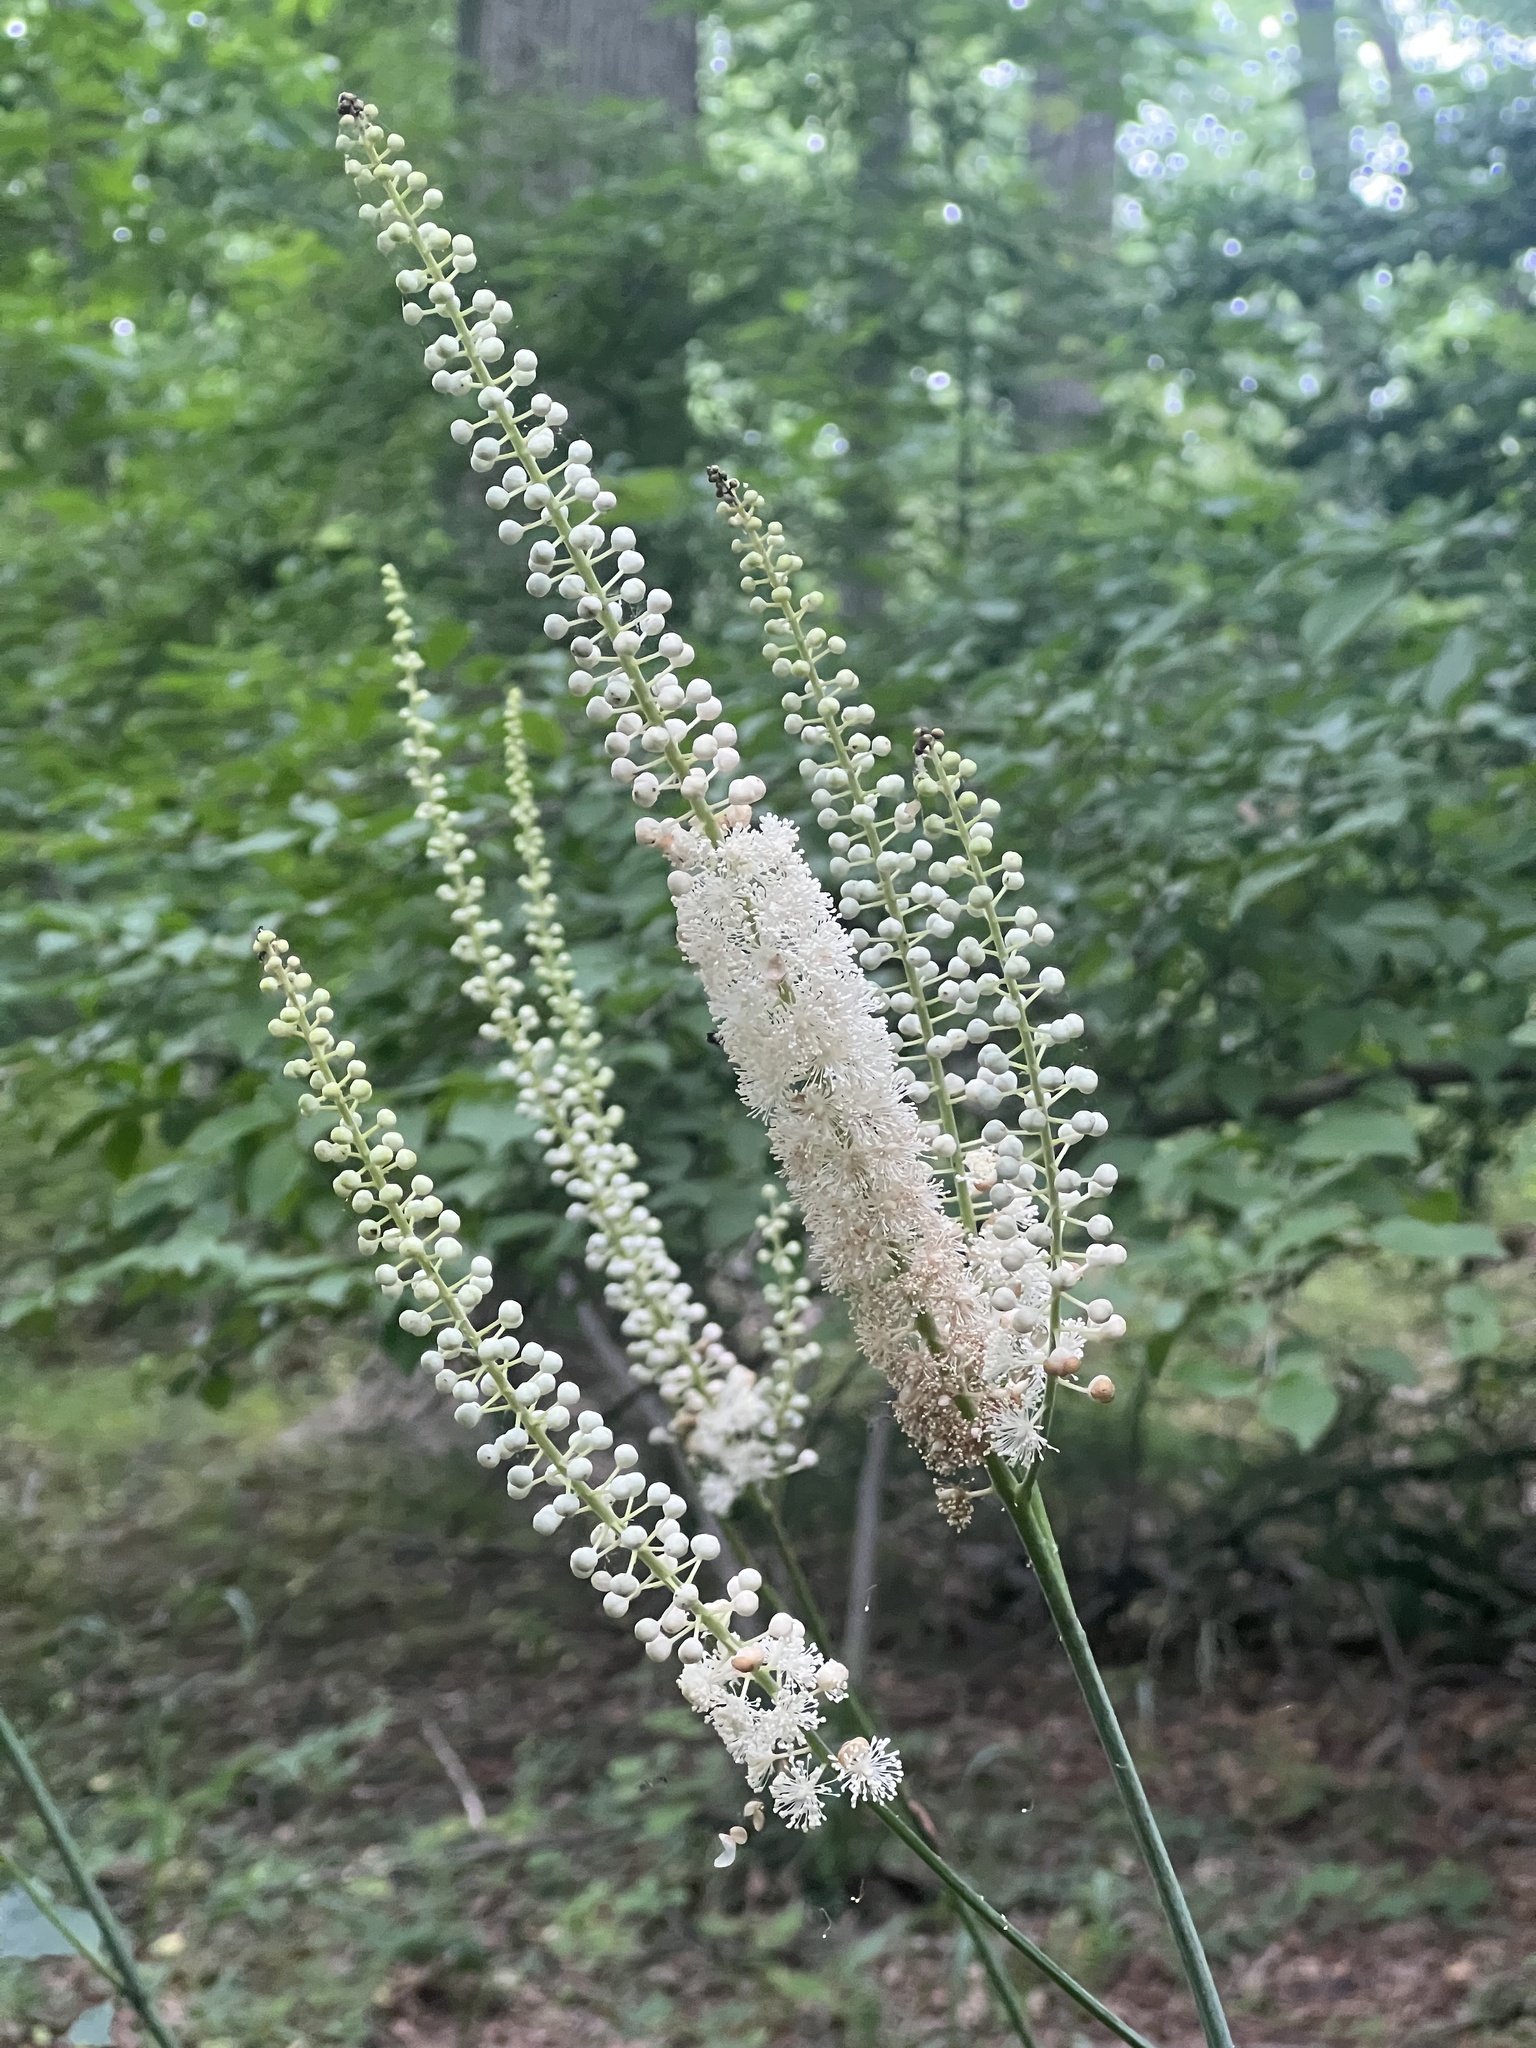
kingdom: Plantae
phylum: Tracheophyta
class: Magnoliopsida
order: Ranunculales
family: Ranunculaceae
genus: Actaea
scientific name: Actaea racemosa
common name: Black cohosh
